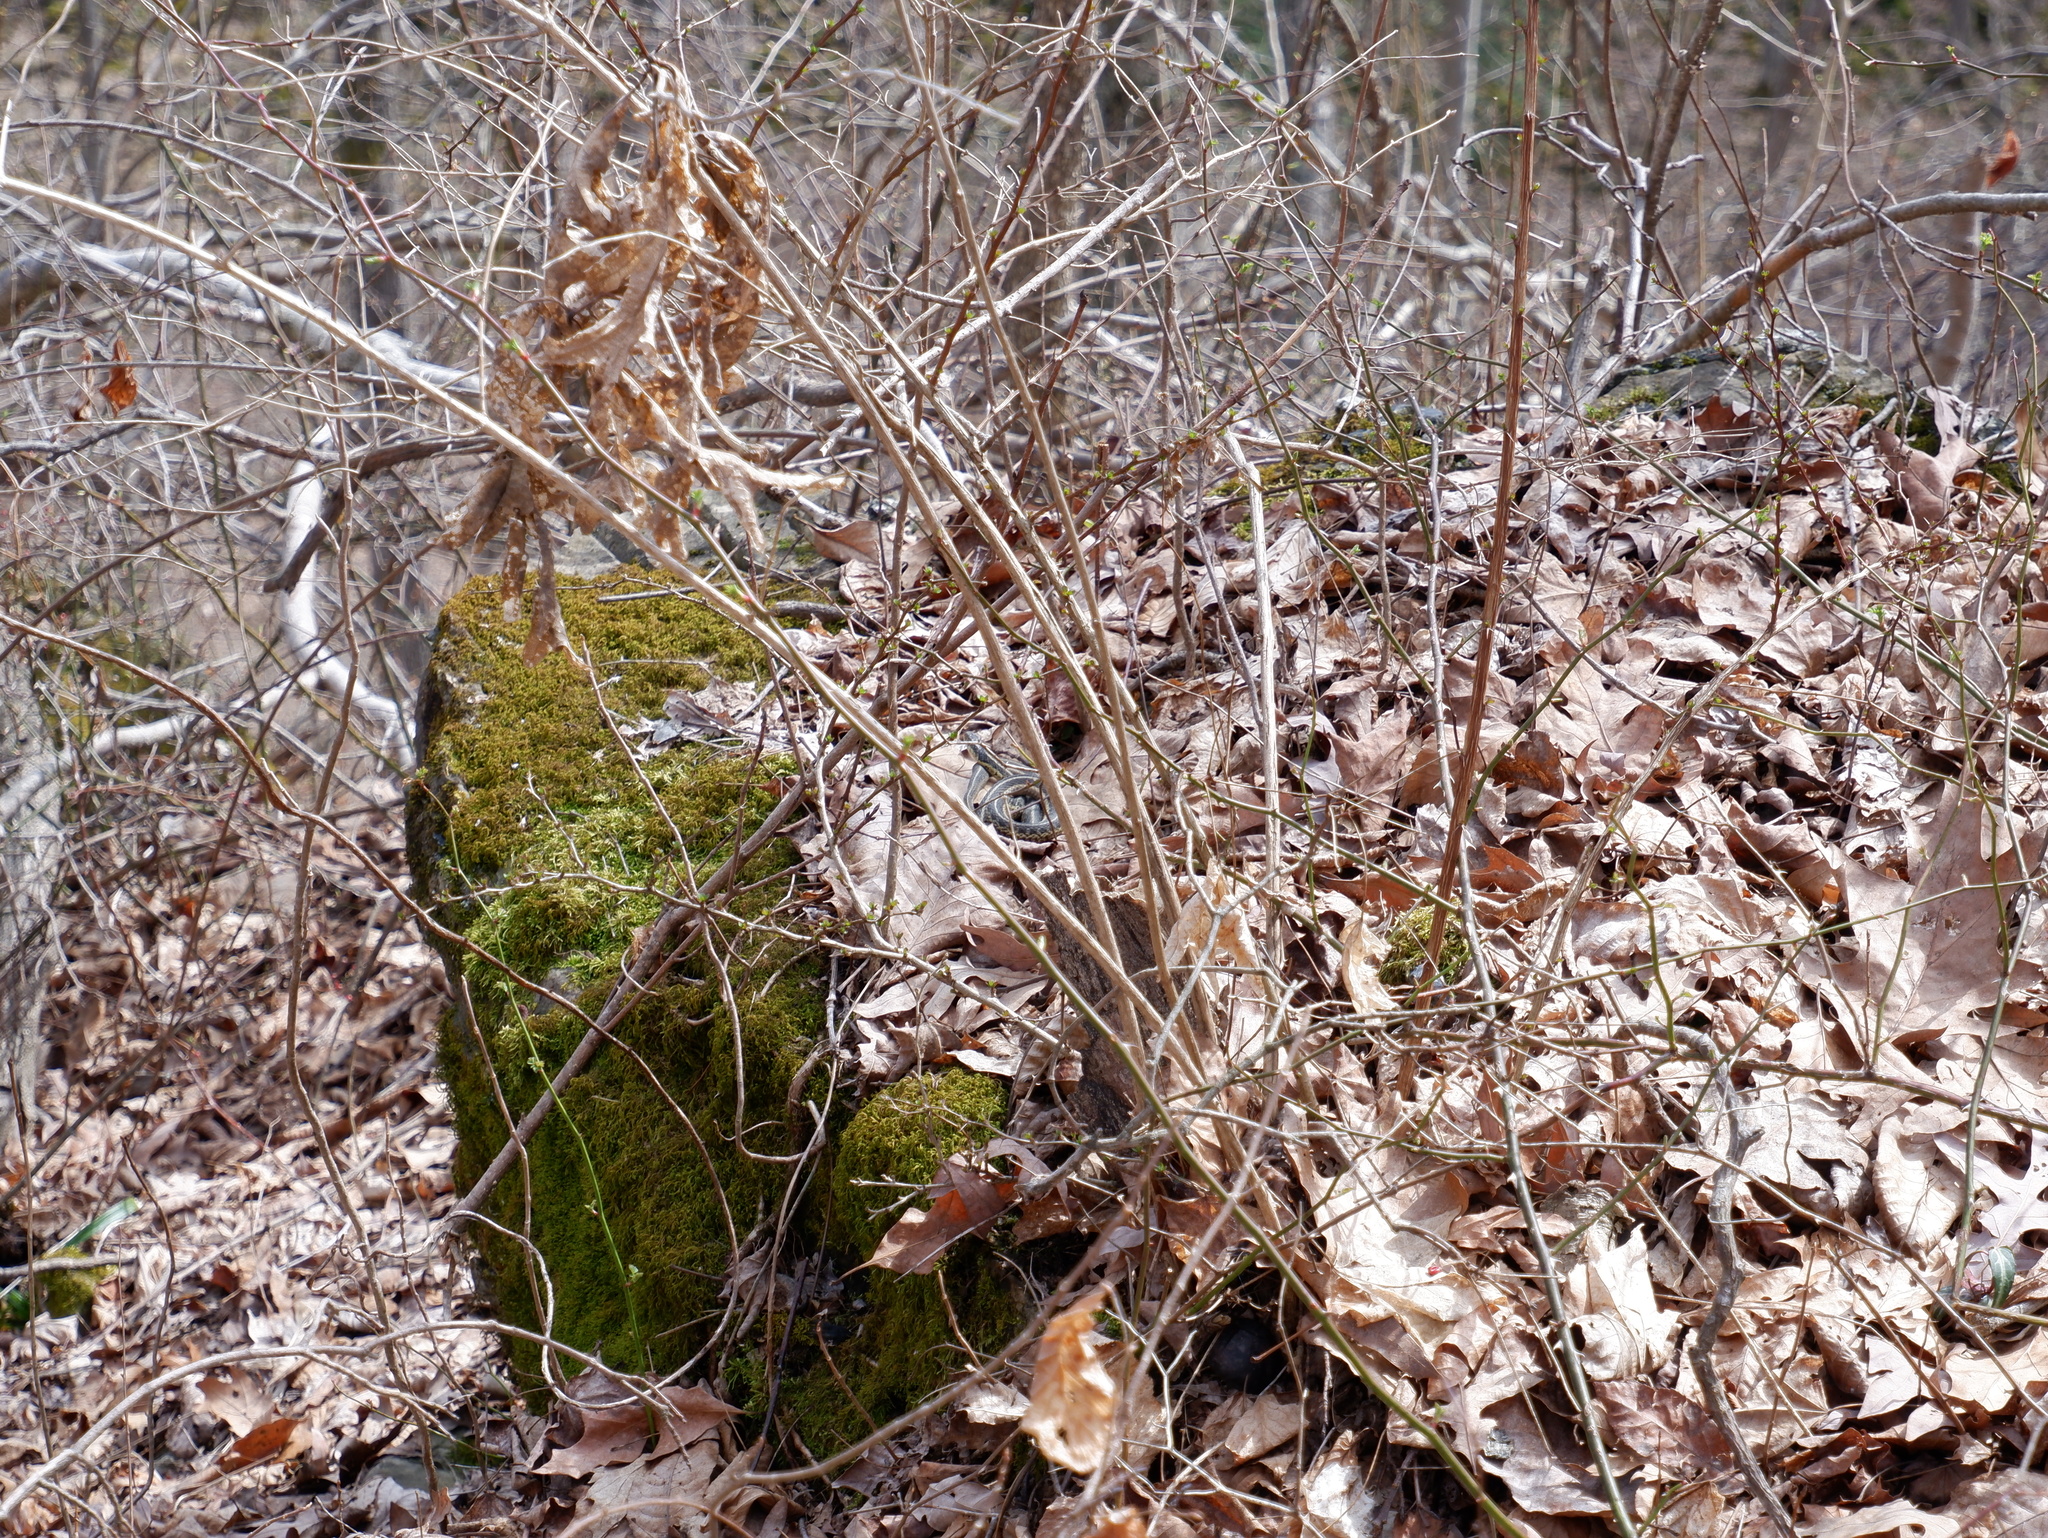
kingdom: Animalia
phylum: Chordata
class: Squamata
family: Colubridae
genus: Thamnophis
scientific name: Thamnophis sirtalis
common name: Common garter snake
